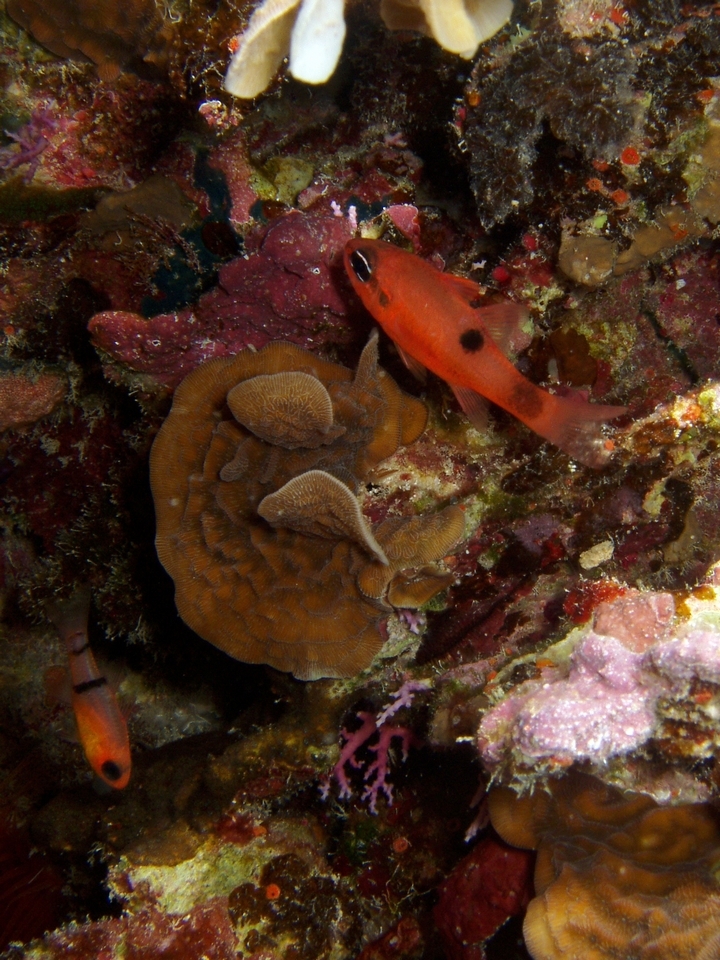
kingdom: Animalia
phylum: Chordata
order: Perciformes
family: Apogonidae
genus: Apogon
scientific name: Apogon maculatus
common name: Flamefish
